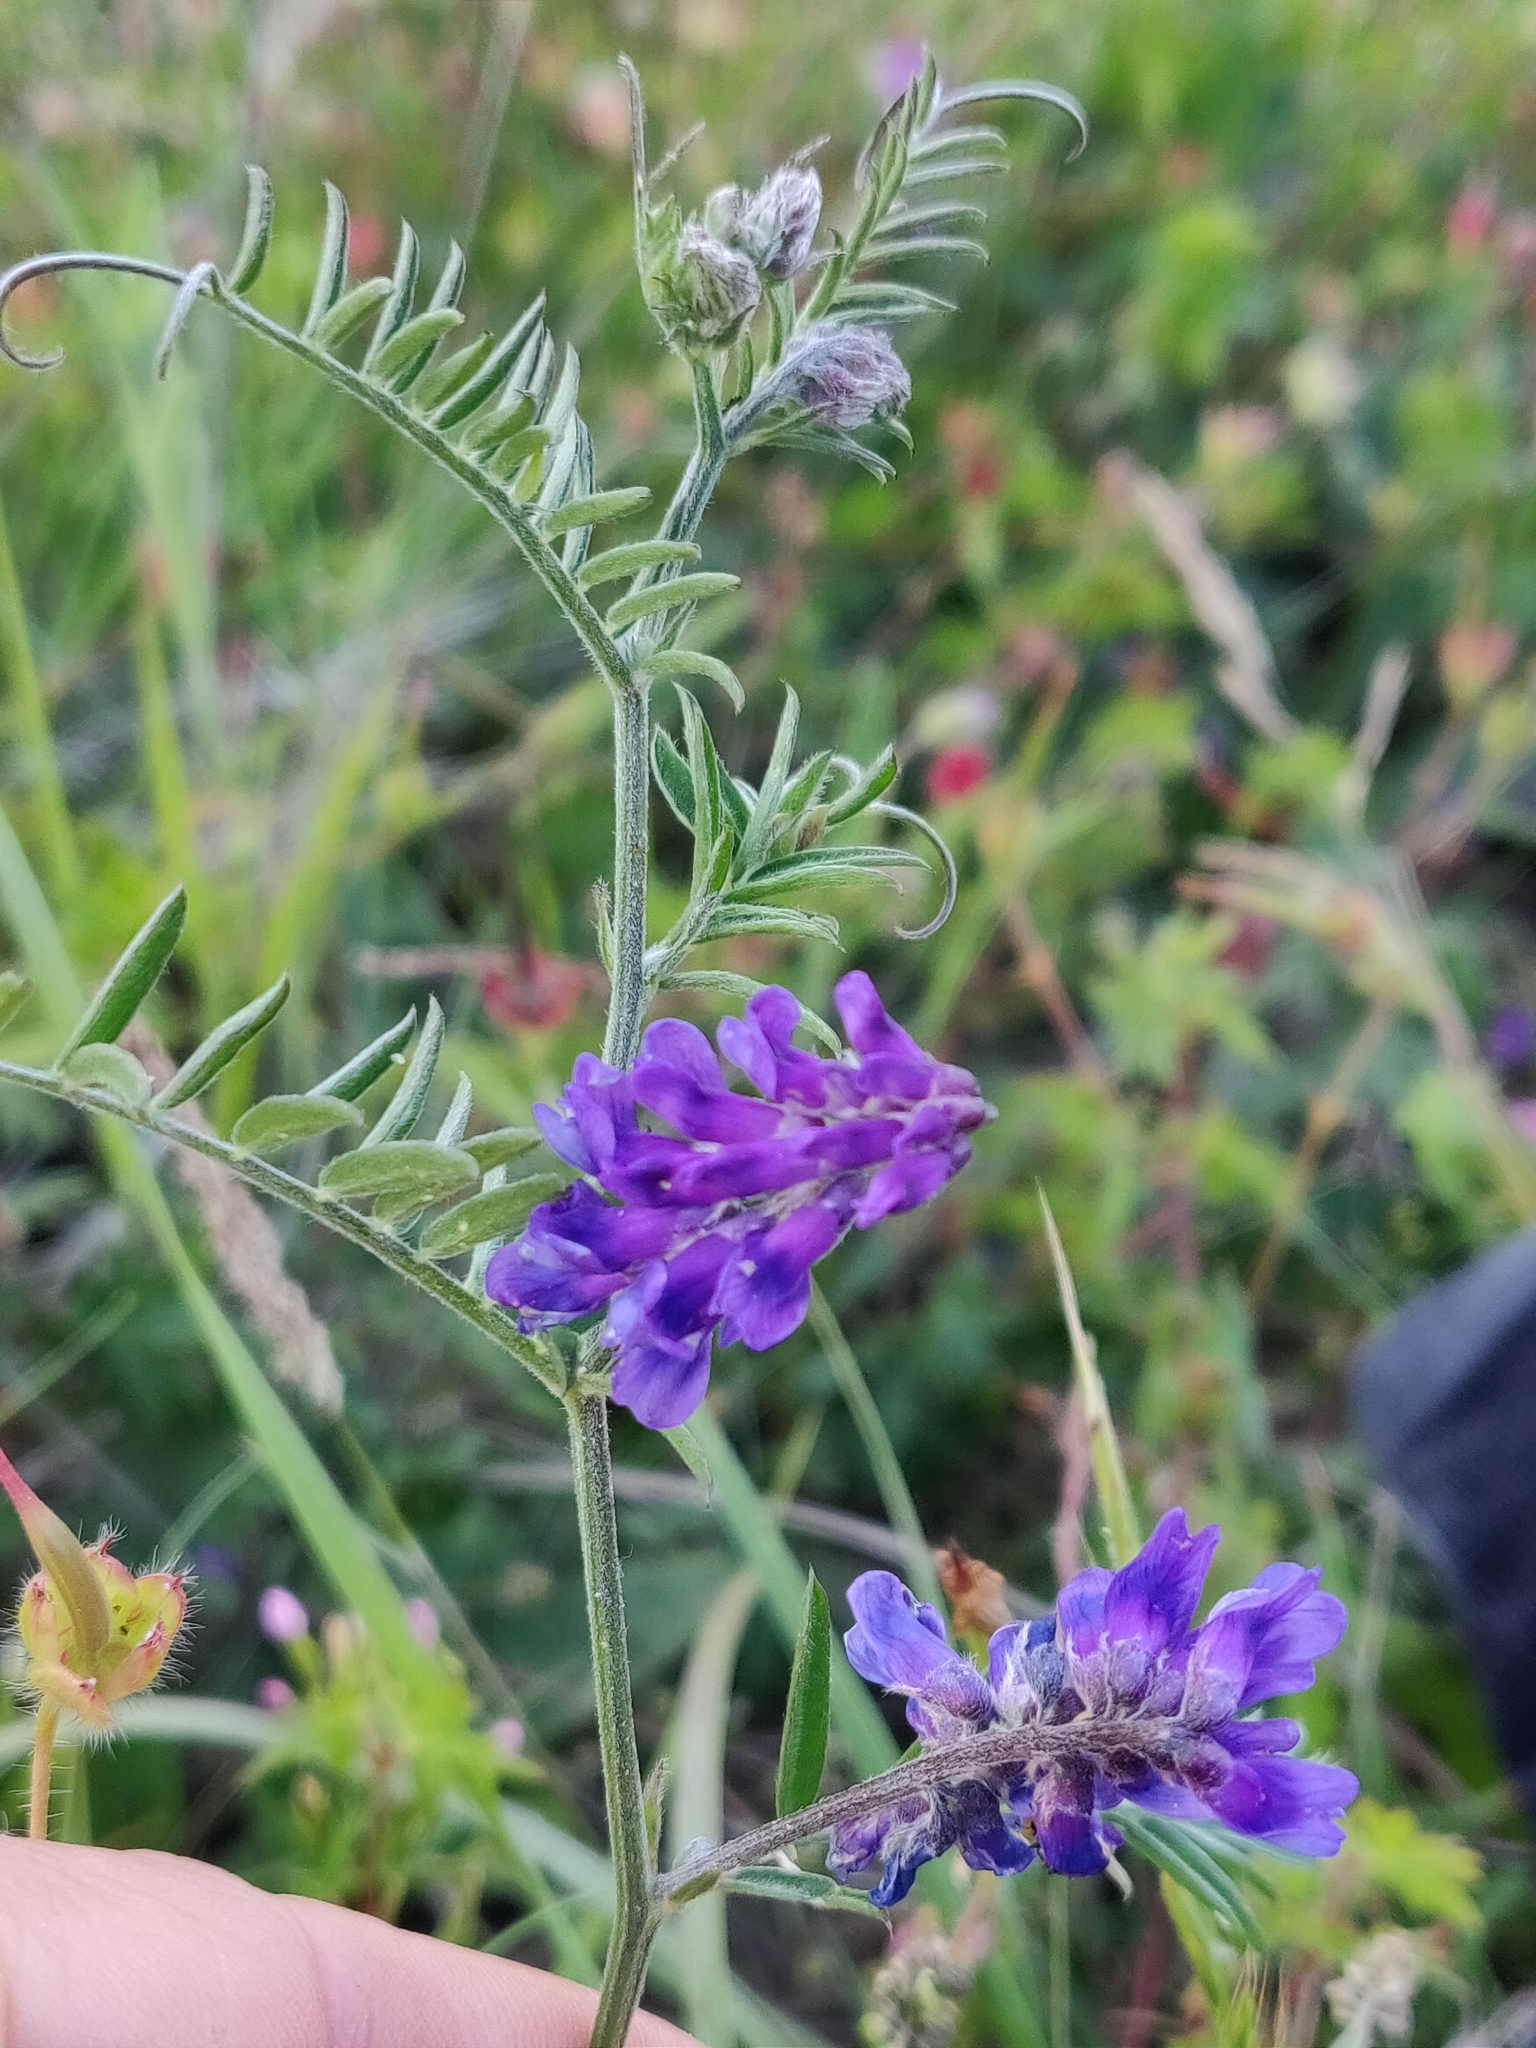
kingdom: Plantae
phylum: Tracheophyta
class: Magnoliopsida
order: Fabales
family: Fabaceae
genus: Vicia
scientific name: Vicia cracca
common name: Bird vetch
